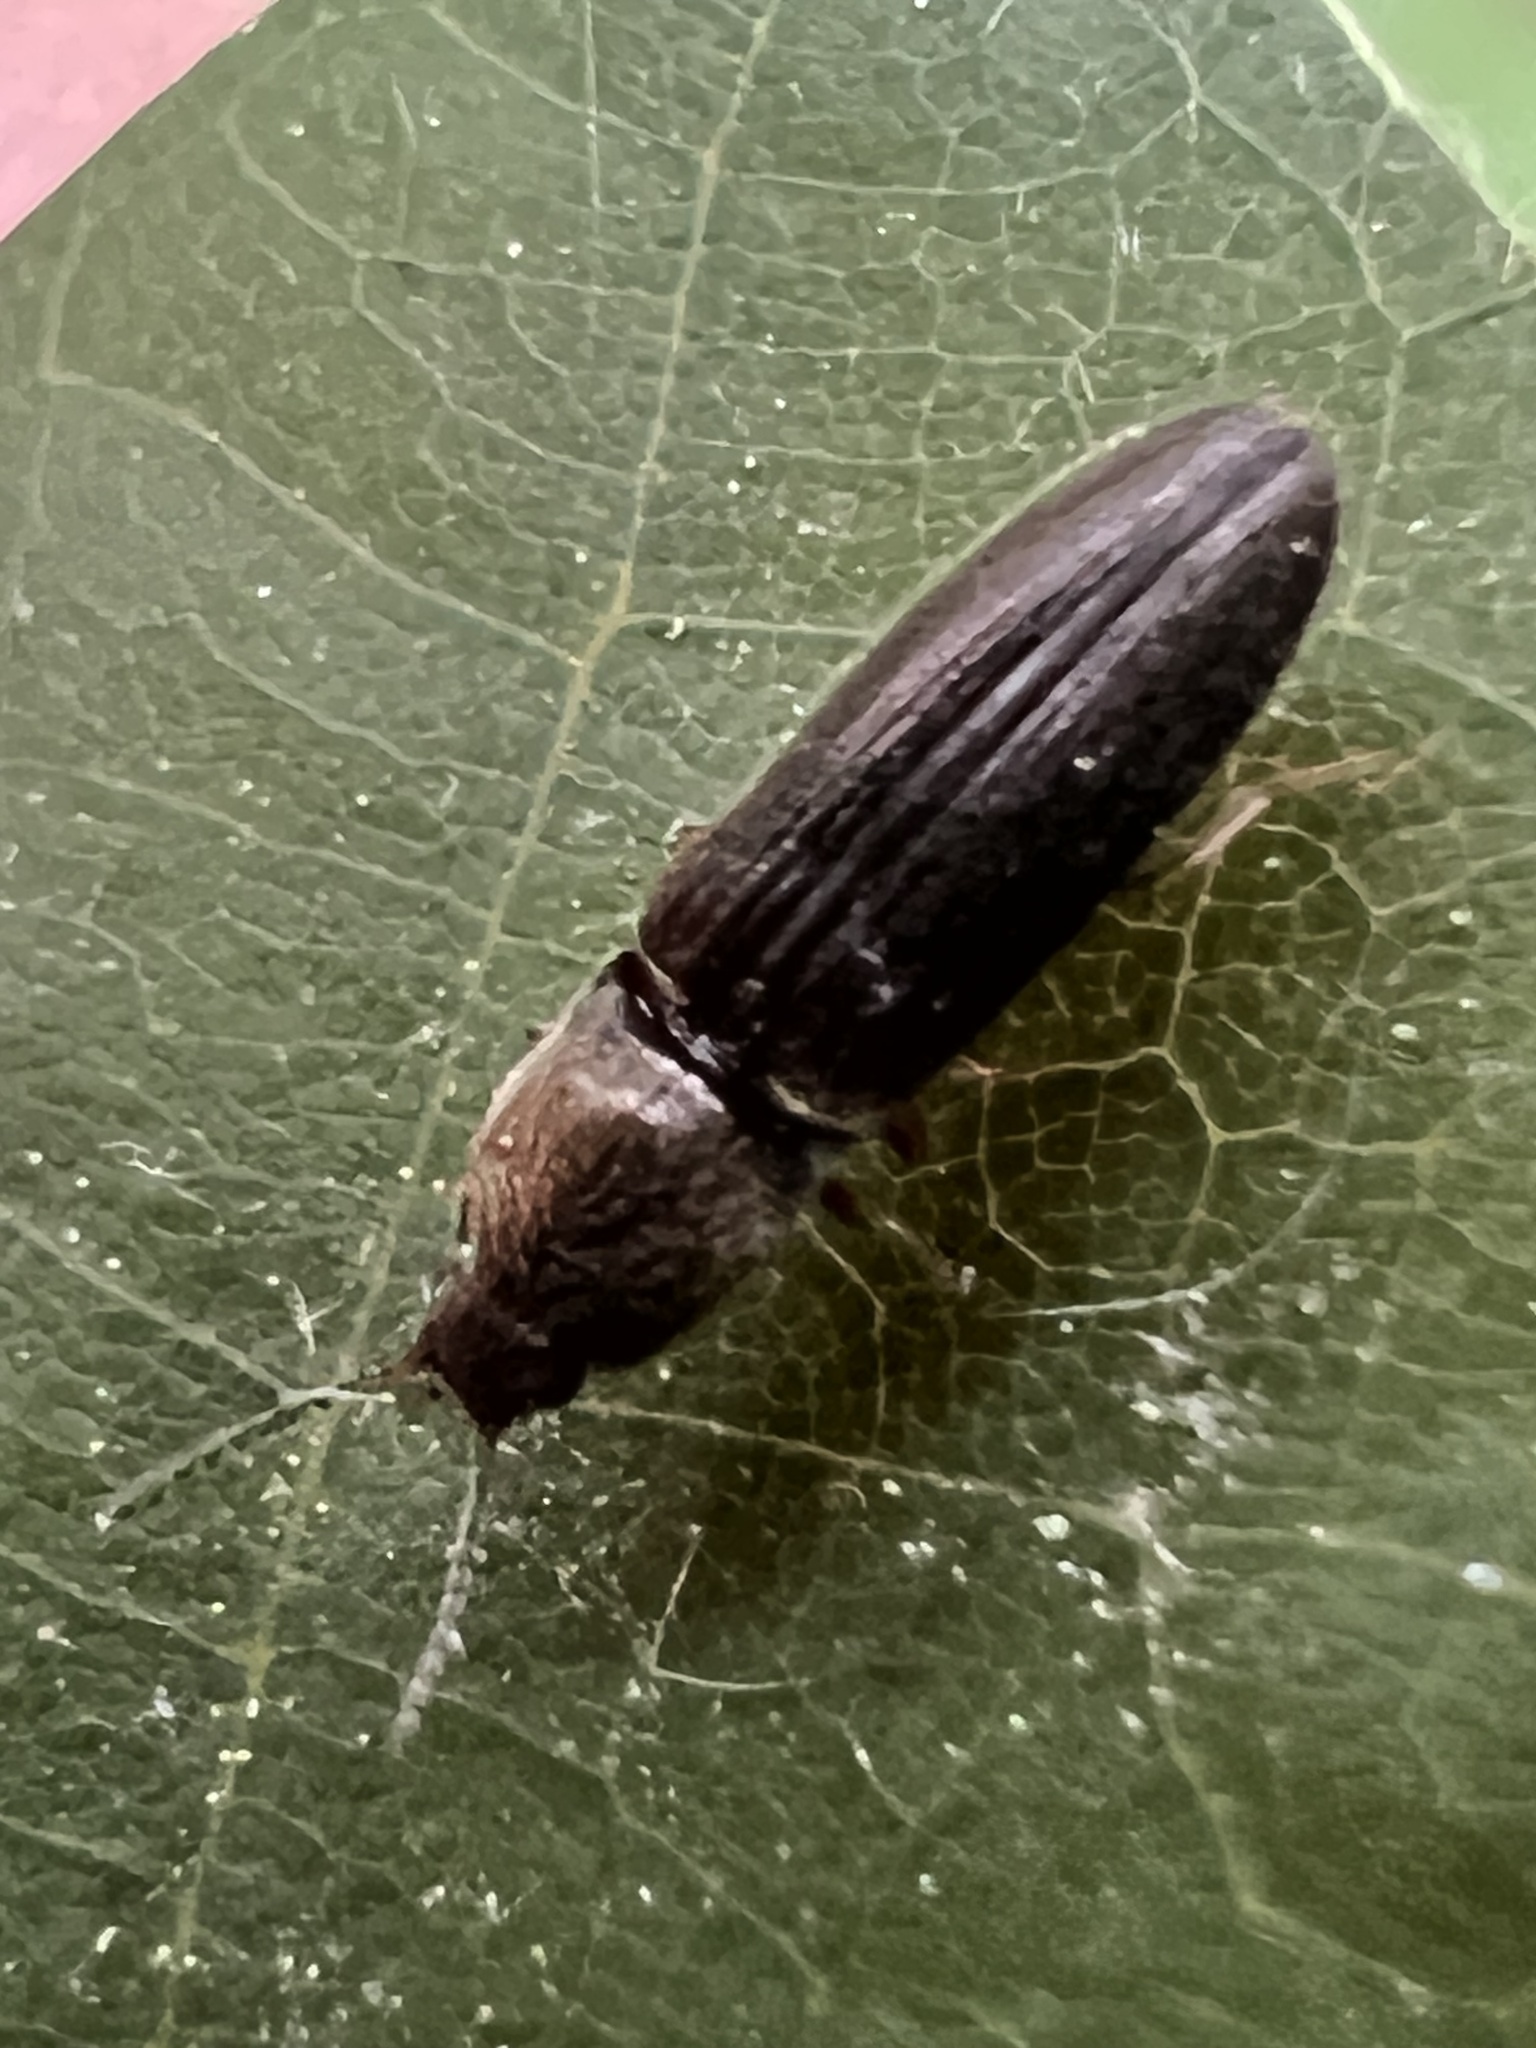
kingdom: Animalia
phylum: Arthropoda
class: Insecta
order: Coleoptera
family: Elateridae
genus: Limonius
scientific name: Limonius quercinus
